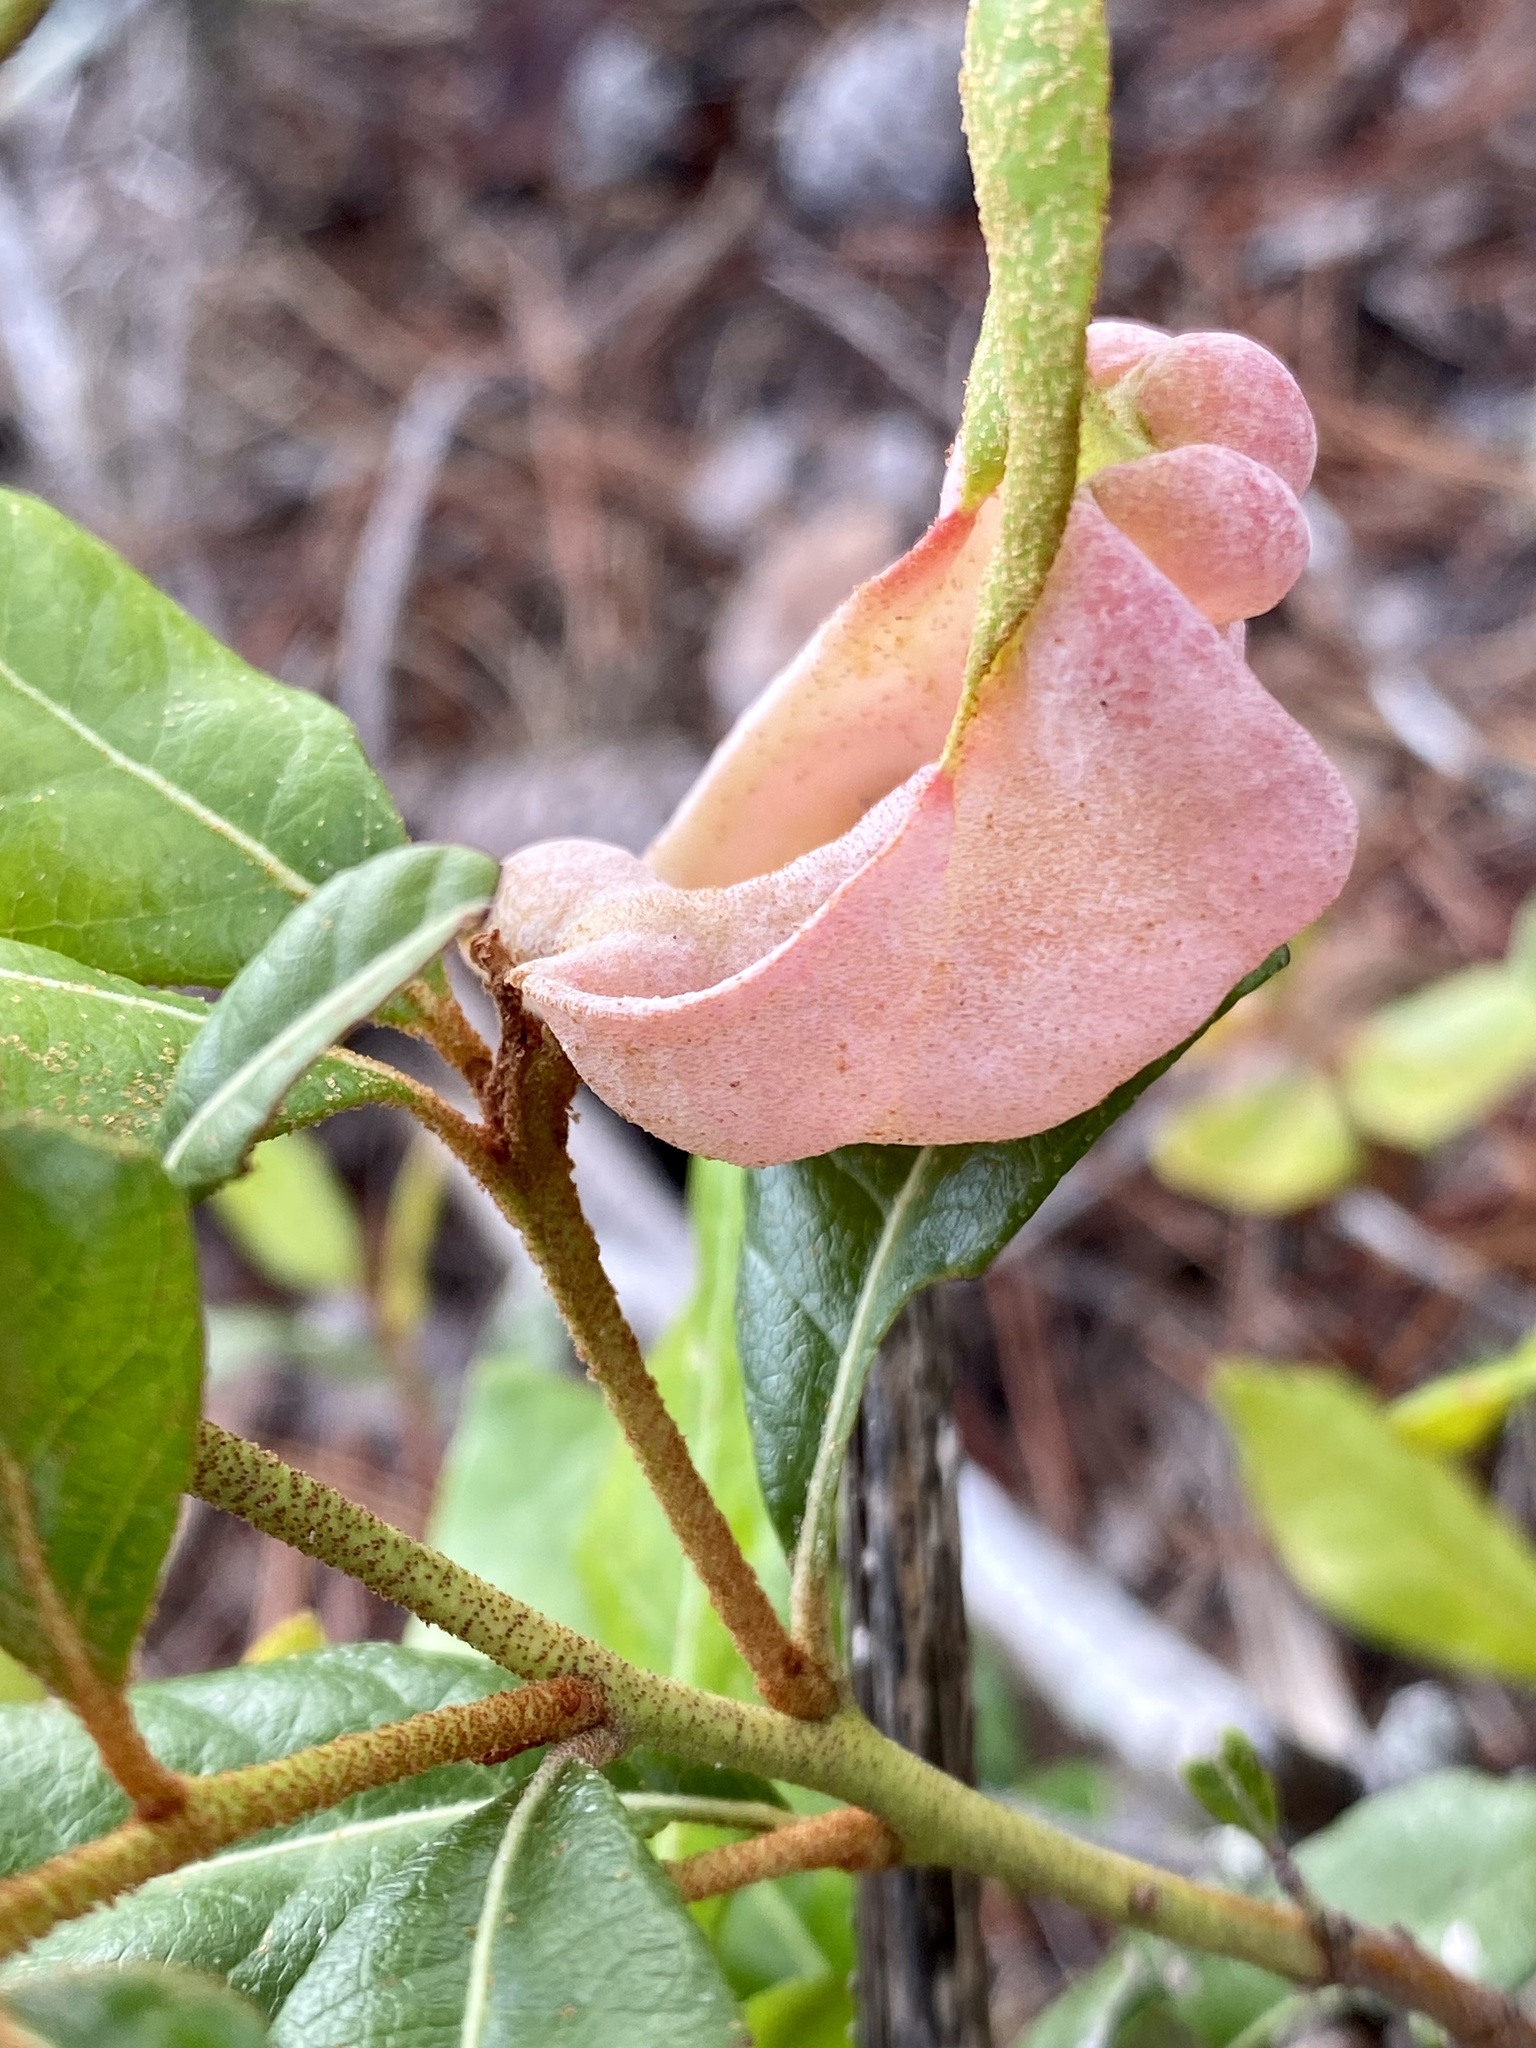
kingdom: Fungi
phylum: Basidiomycota
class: Exobasidiomycetes
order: Exobasidiales
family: Exobasidiaceae
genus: Exobasidium
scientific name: Exobasidium ferrugineae
